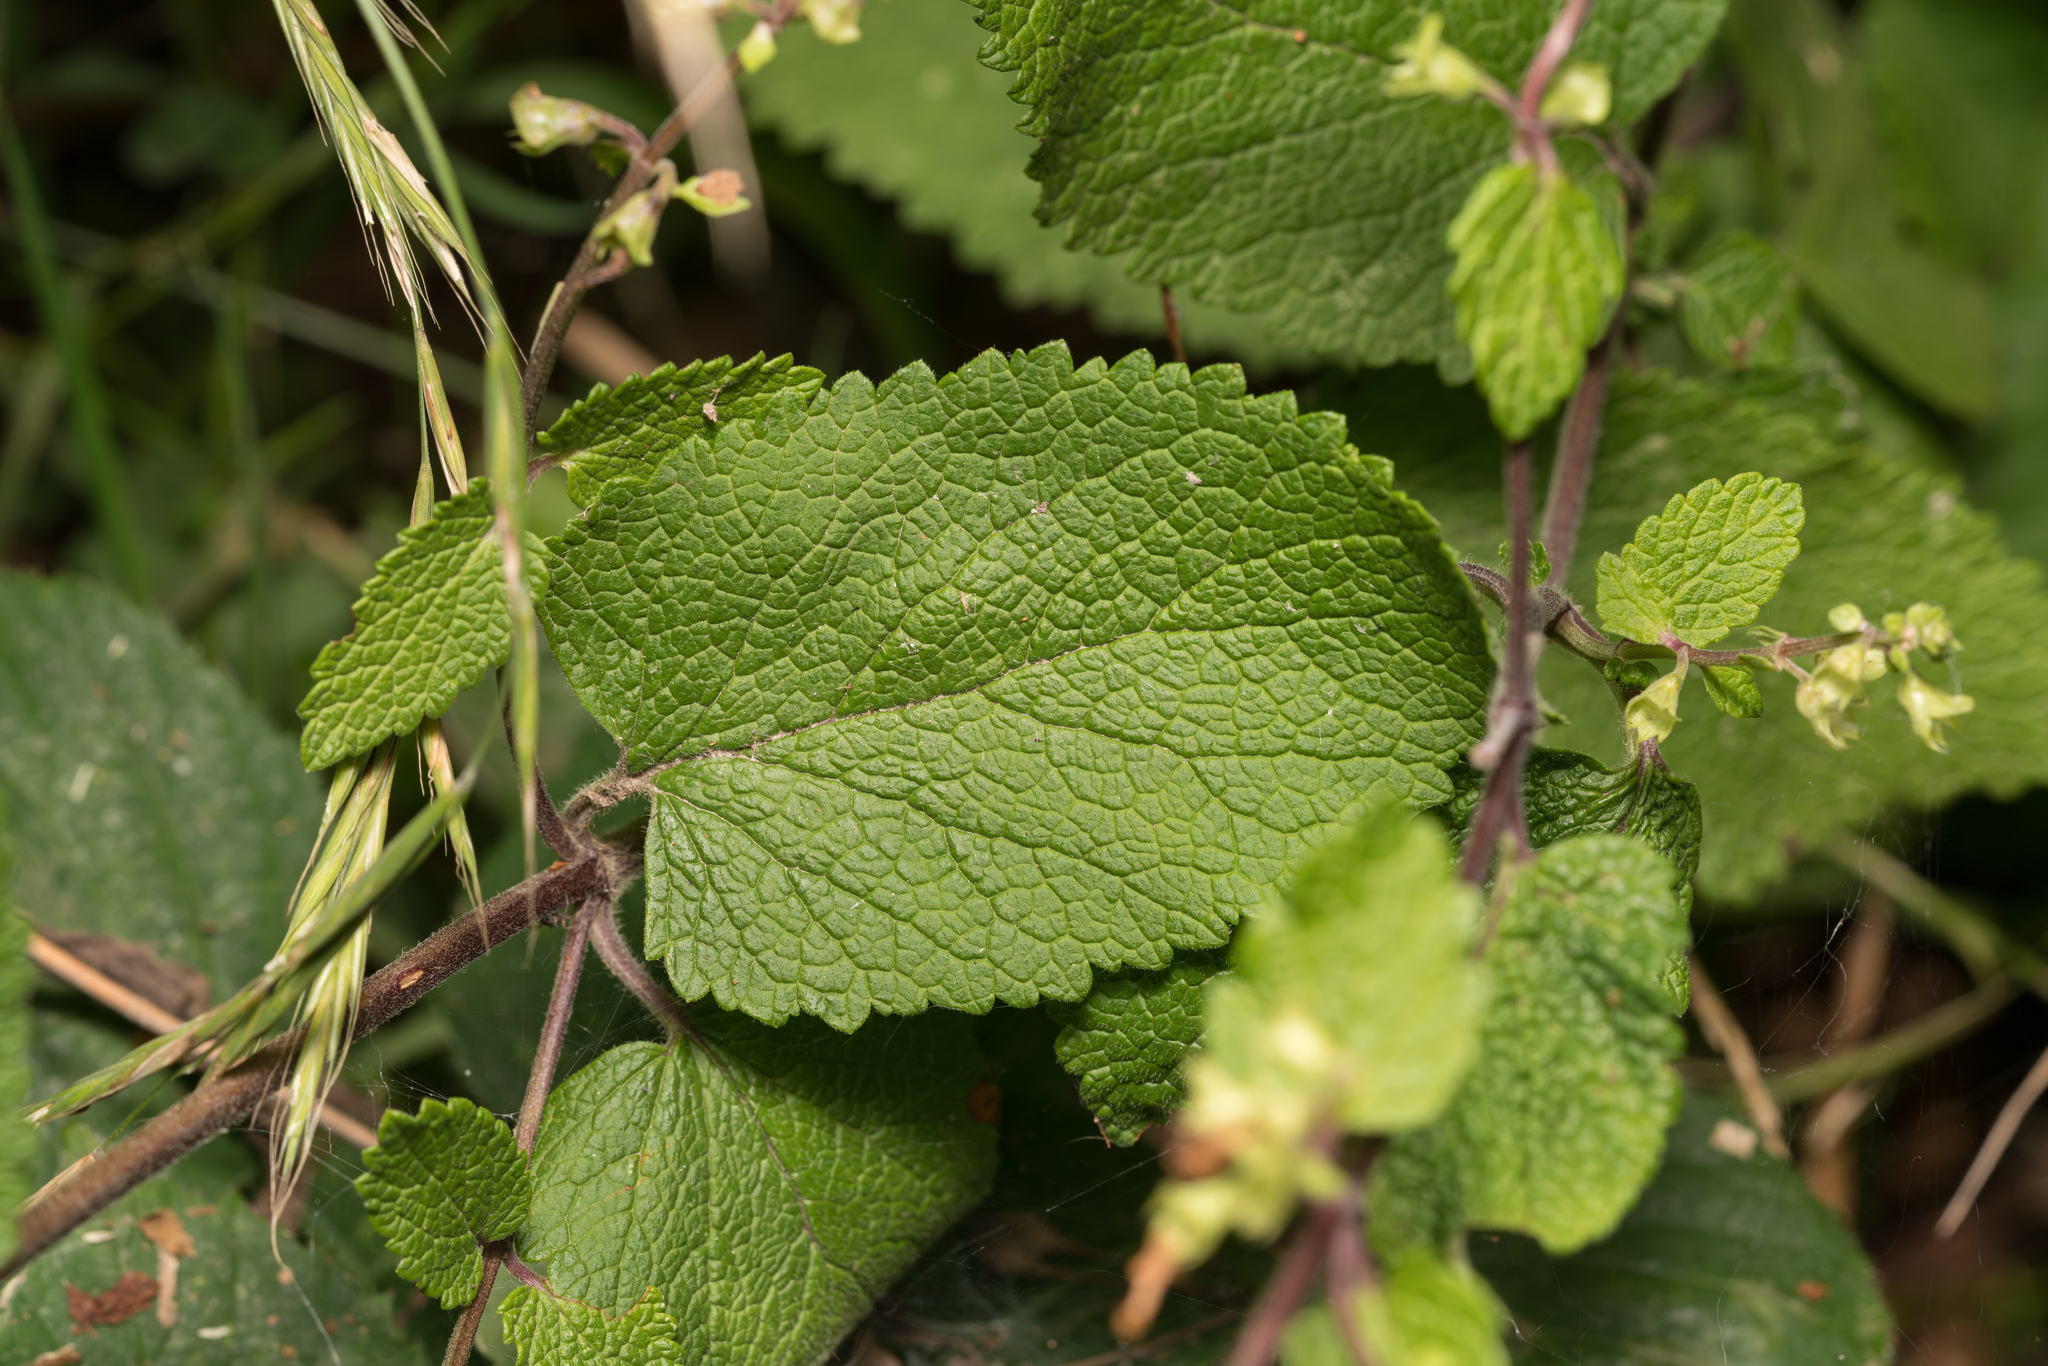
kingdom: Plantae
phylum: Tracheophyta
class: Magnoliopsida
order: Lamiales
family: Lamiaceae
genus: Teucrium
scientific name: Teucrium scorodonia
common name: Woodland germander
